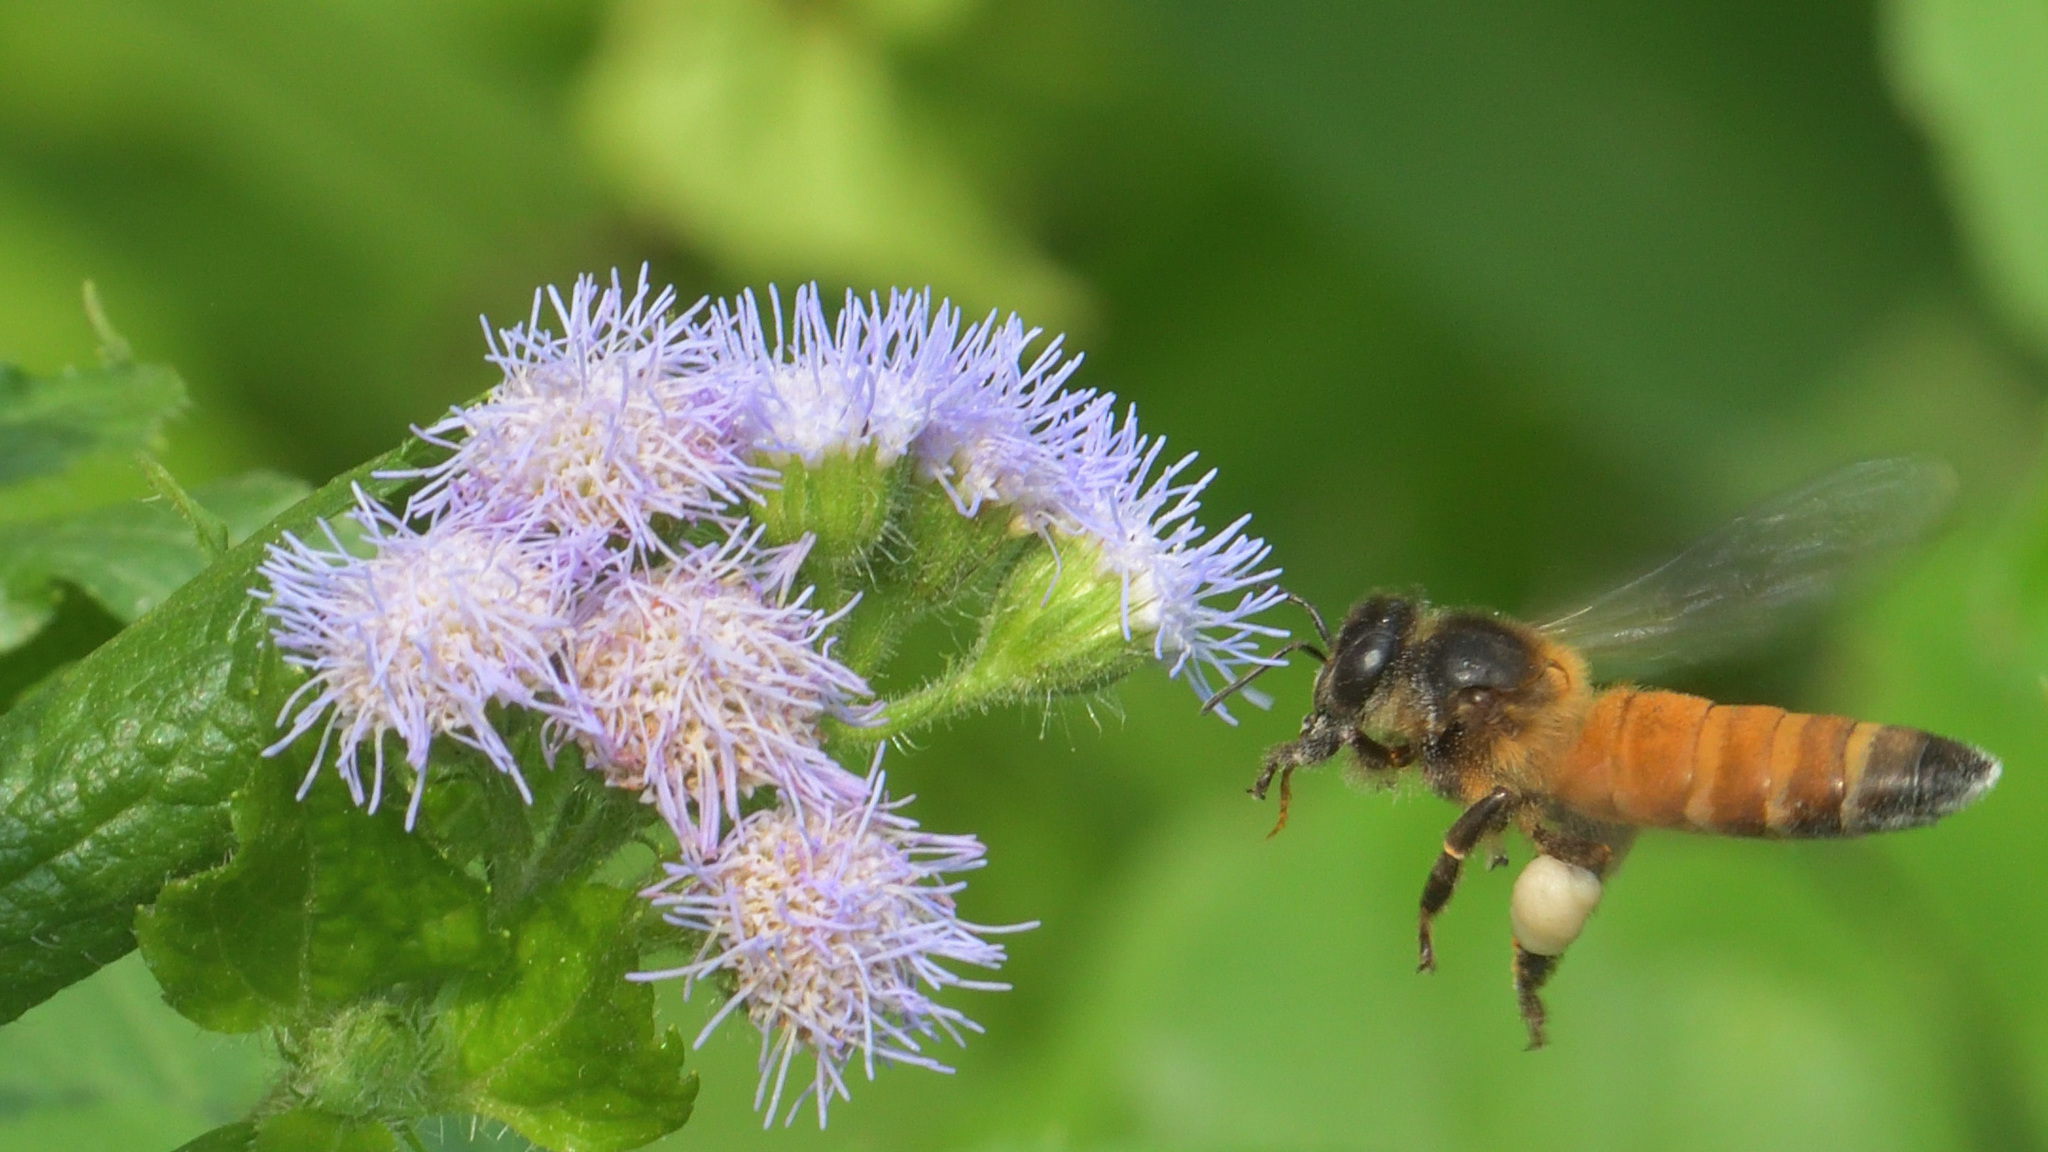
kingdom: Animalia
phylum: Arthropoda
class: Insecta
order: Hymenoptera
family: Apidae
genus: Apis
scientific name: Apis dorsata
